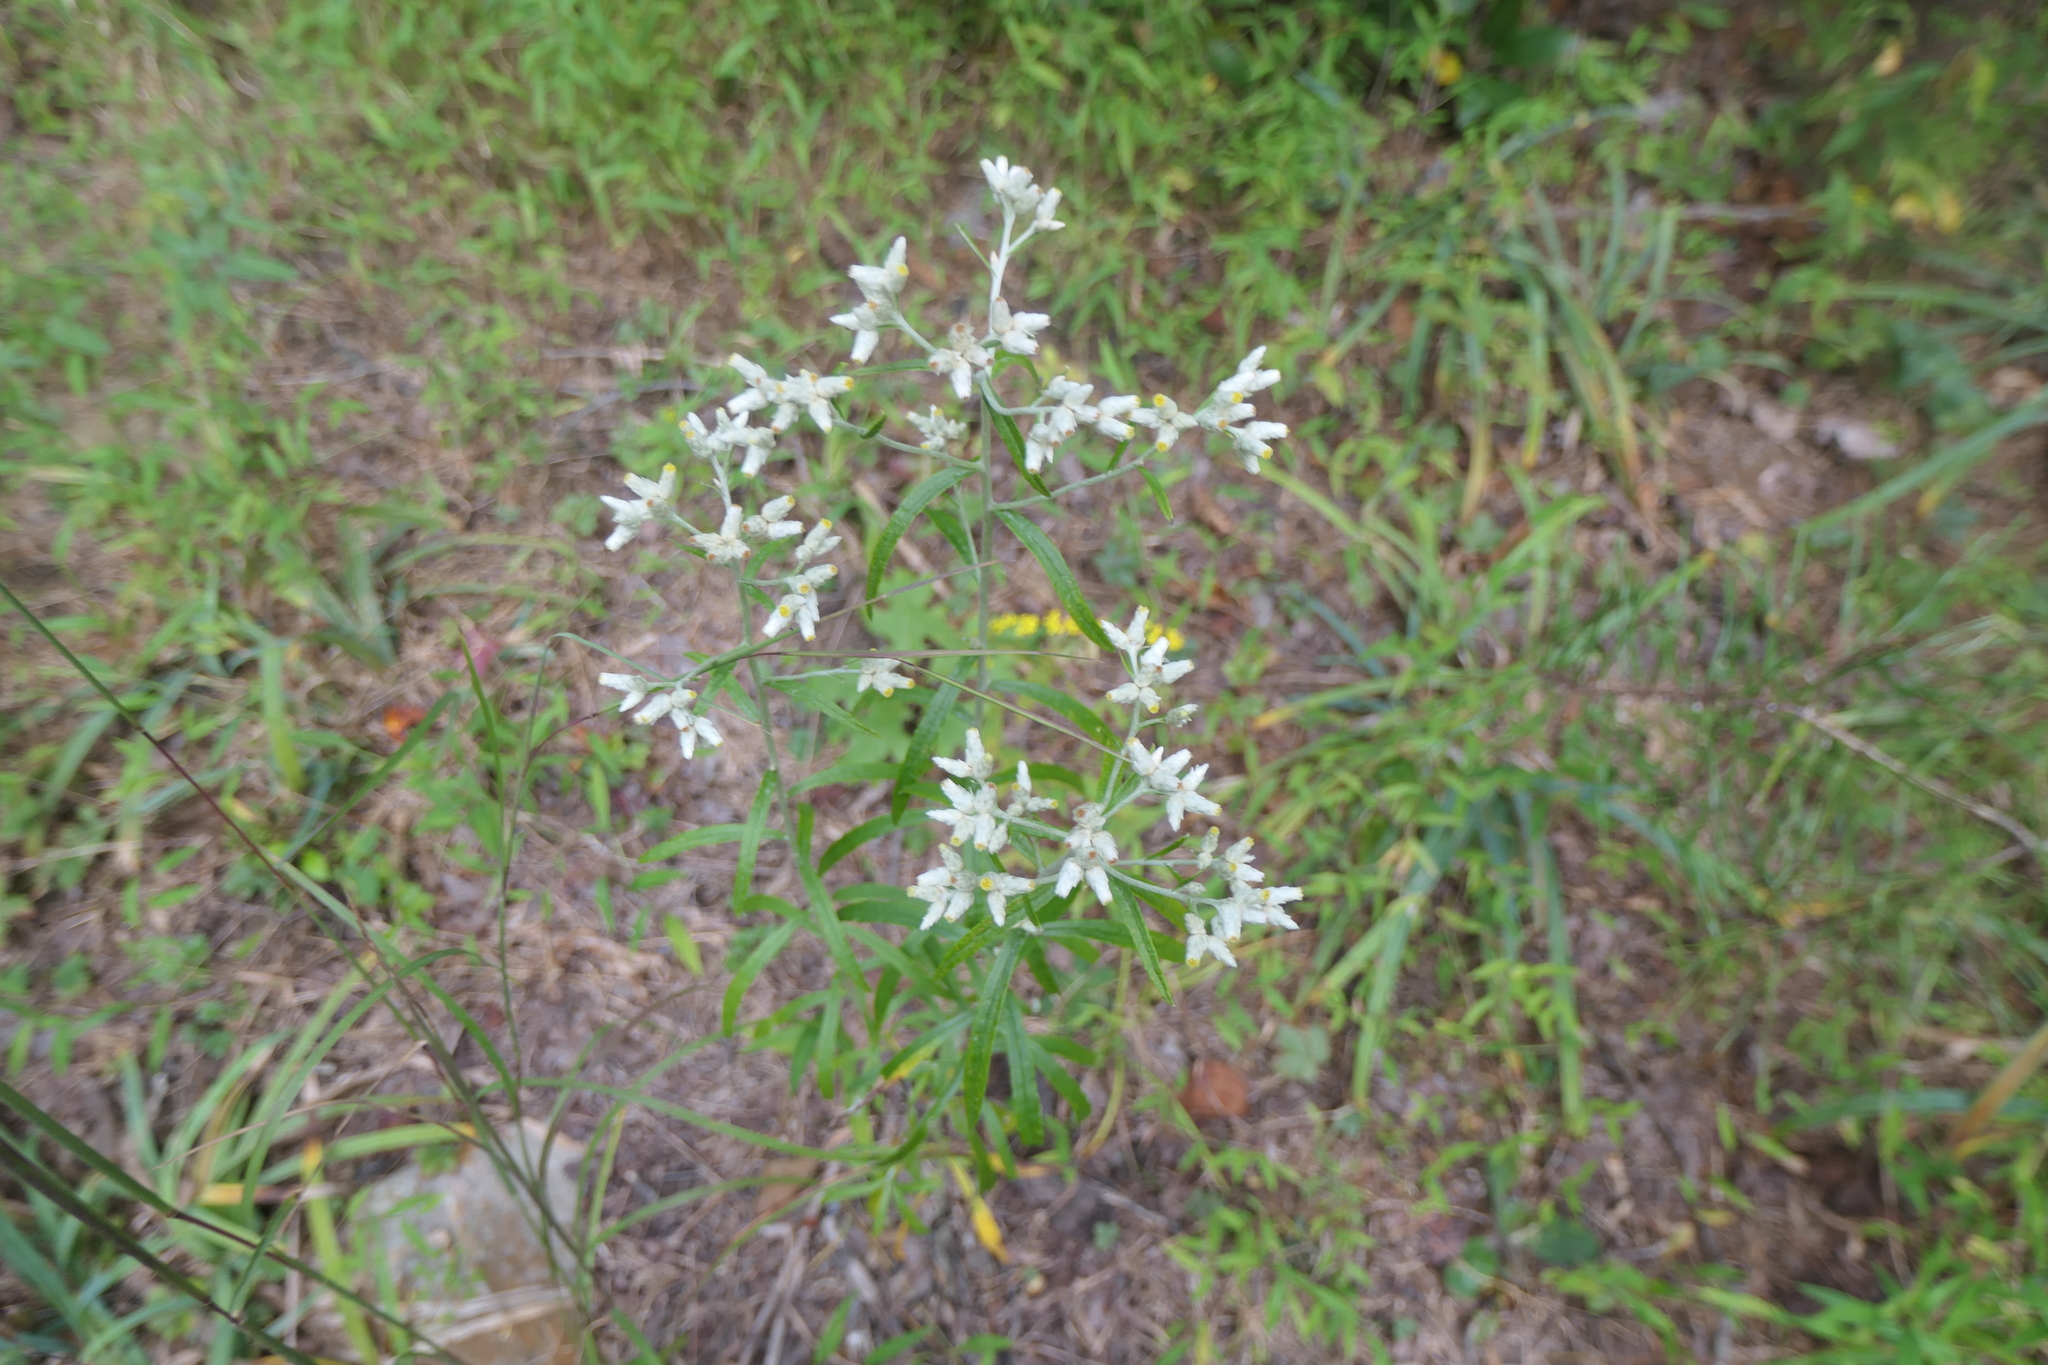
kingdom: Plantae
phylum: Tracheophyta
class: Magnoliopsida
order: Asterales
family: Asteraceae
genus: Pseudognaphalium
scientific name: Pseudognaphalium obtusifolium
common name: Eastern rabbit-tobacco
